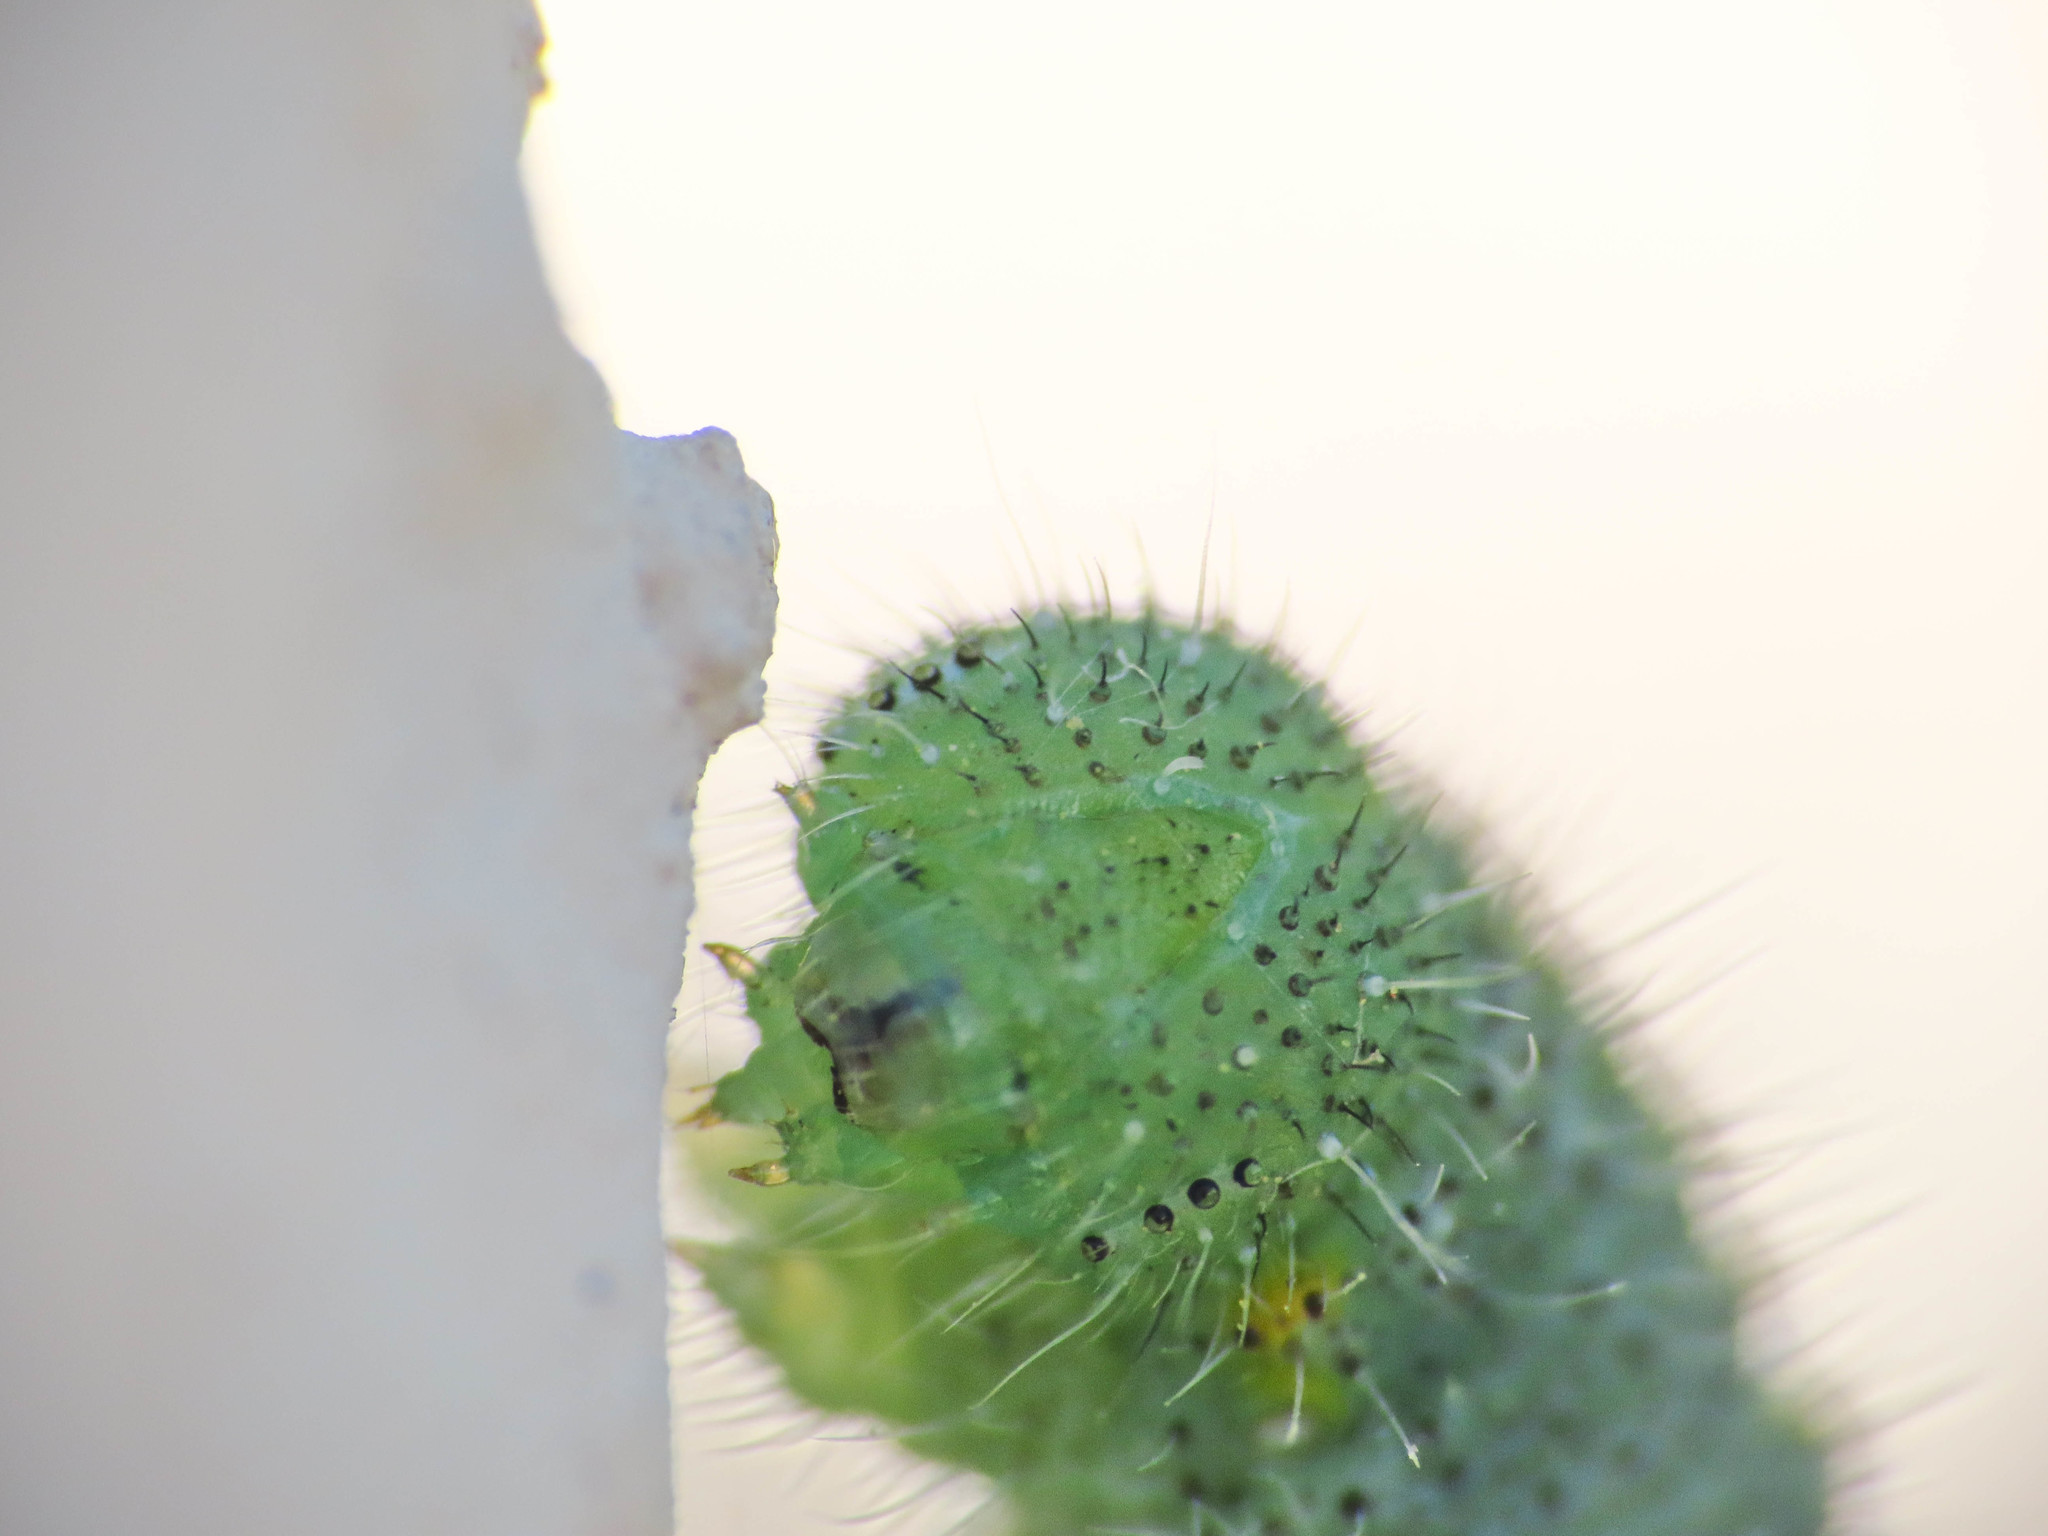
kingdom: Animalia
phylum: Arthropoda
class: Insecta
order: Lepidoptera
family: Pieridae
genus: Pieris
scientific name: Pieris rapae
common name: Small white
